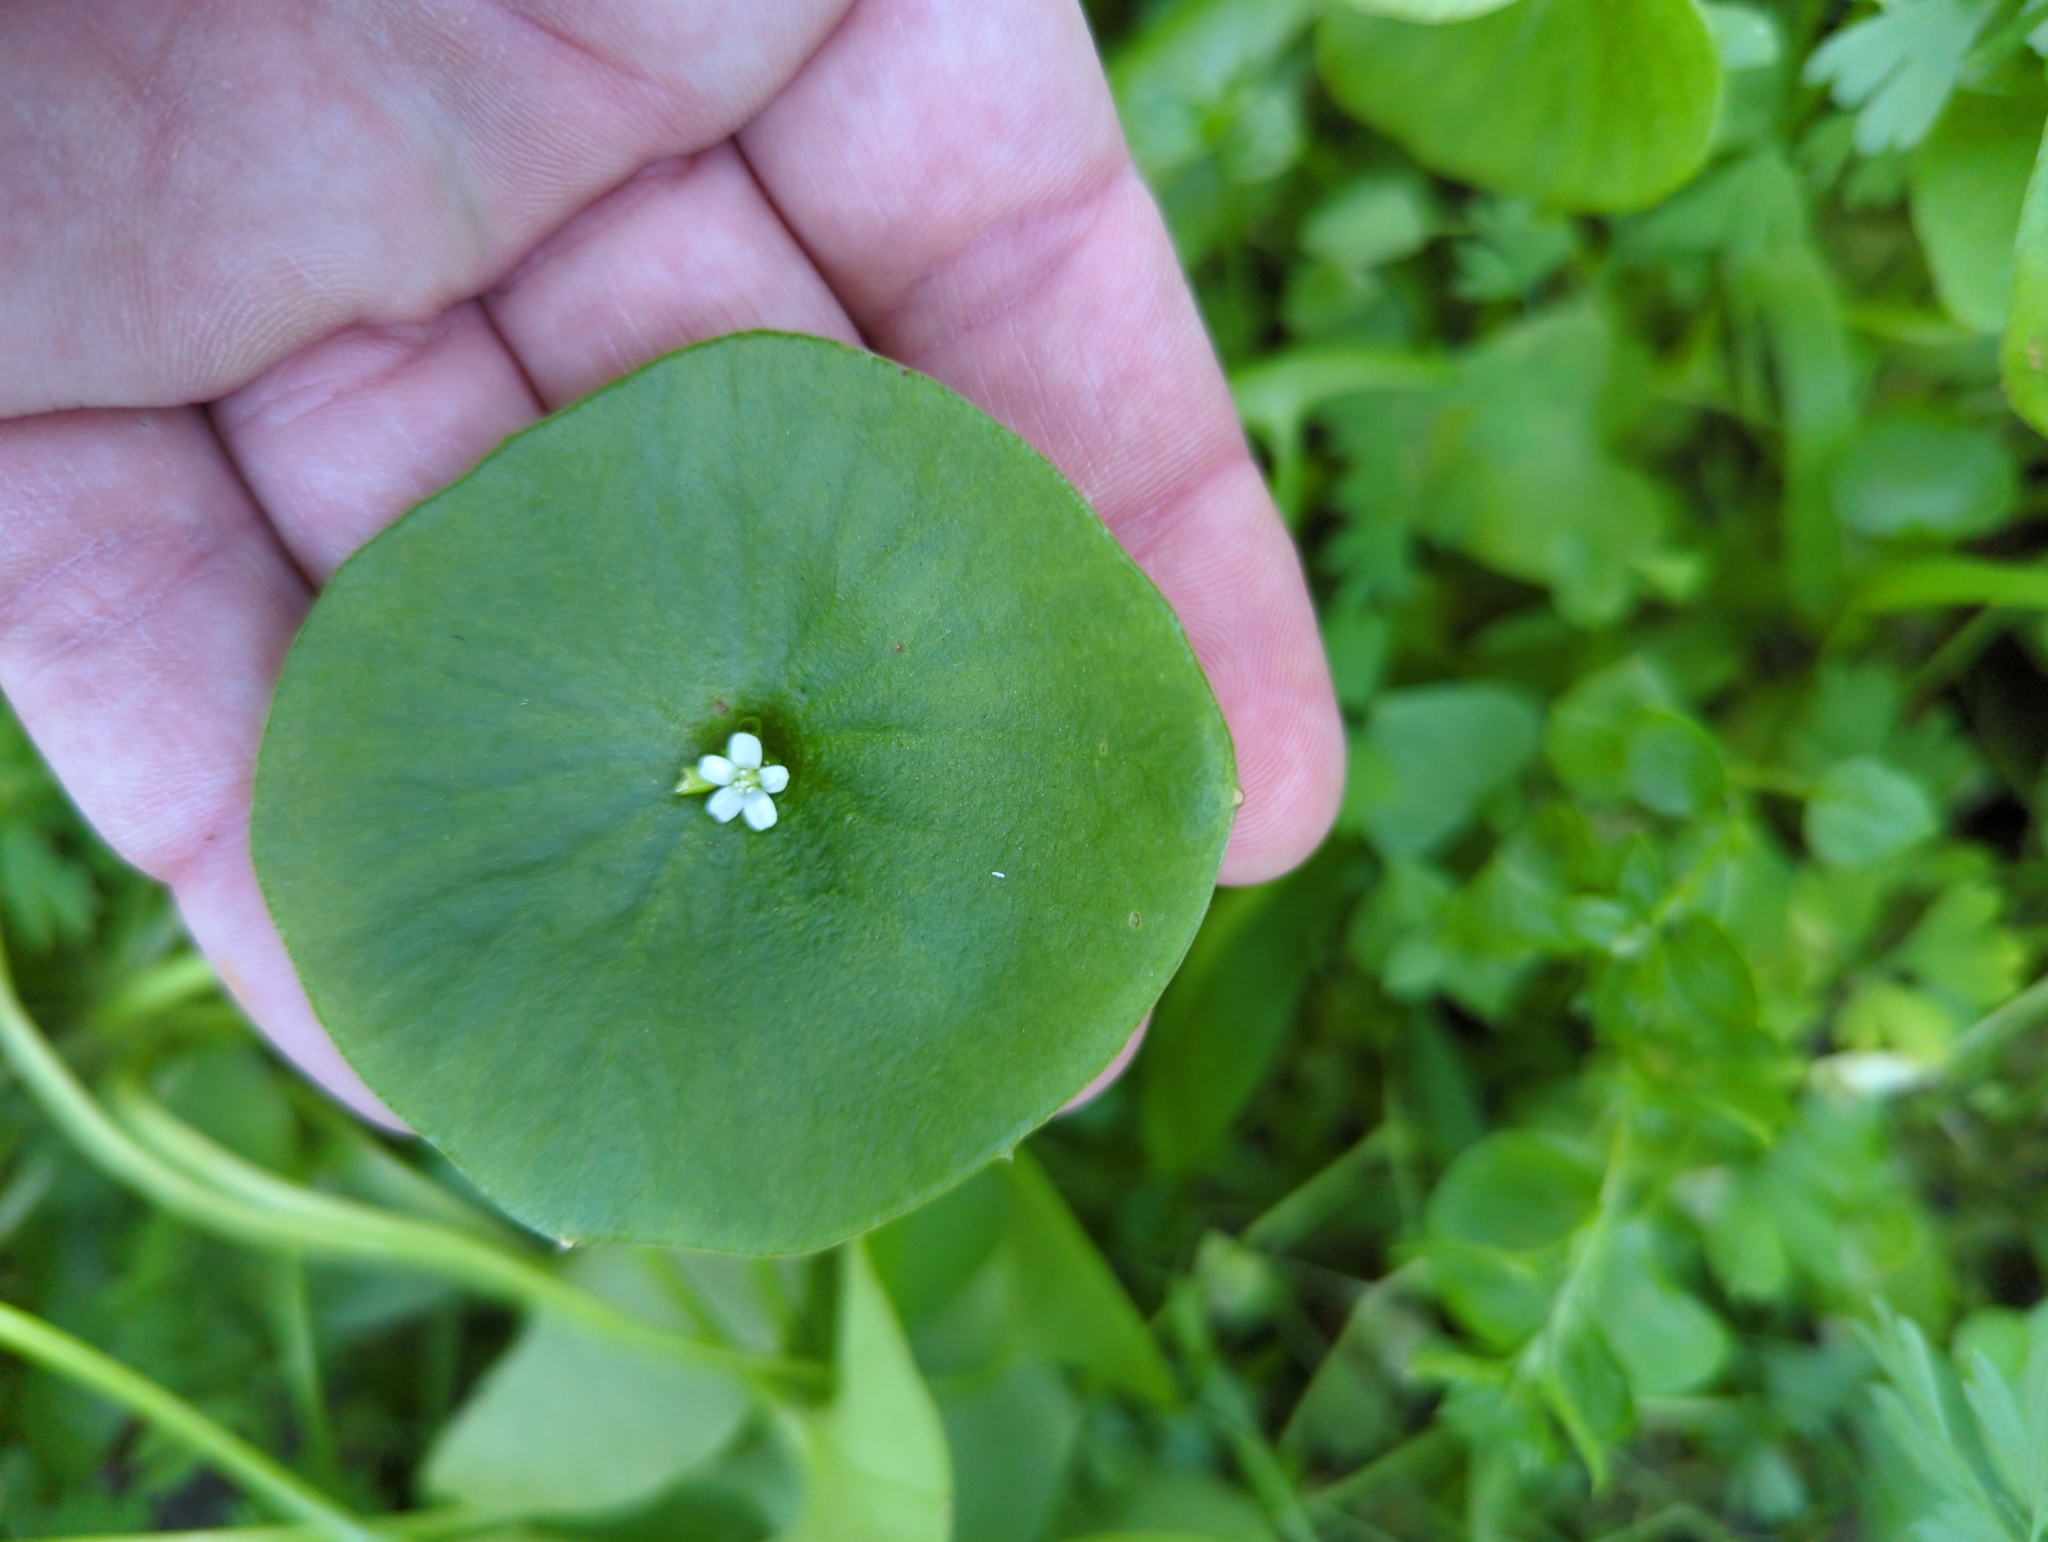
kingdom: Plantae
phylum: Tracheophyta
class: Magnoliopsida
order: Caryophyllales
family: Montiaceae
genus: Claytonia
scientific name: Claytonia perfoliata
